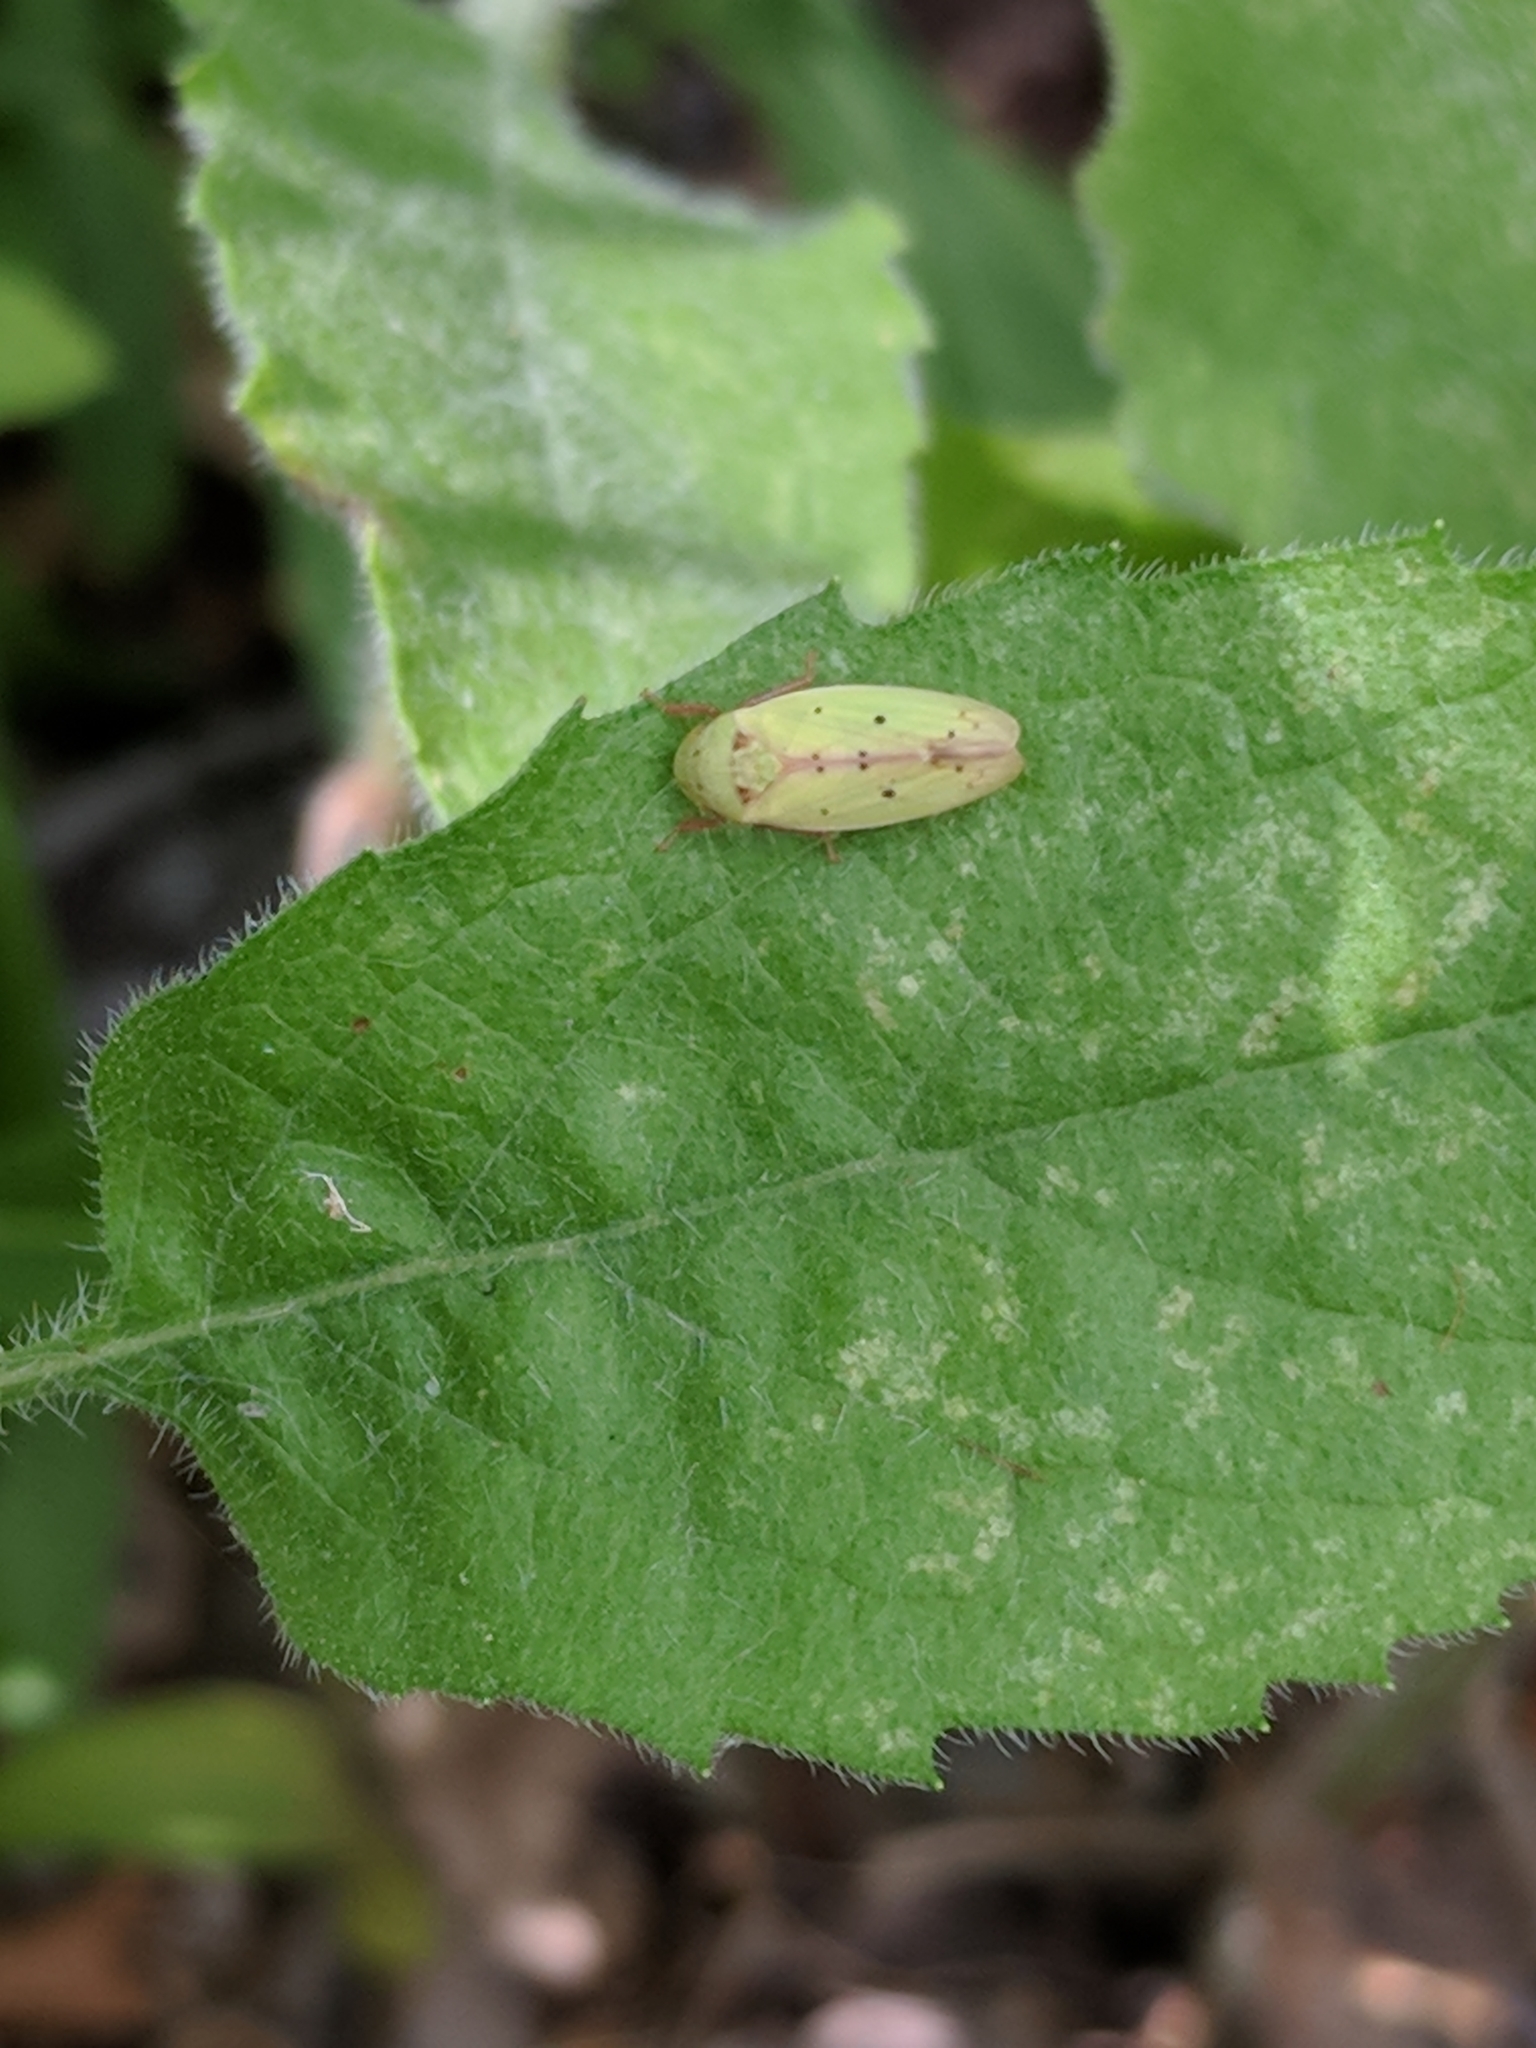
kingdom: Animalia
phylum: Arthropoda
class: Insecta
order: Hemiptera
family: Cicadellidae
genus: Ponana
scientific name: Ponana
